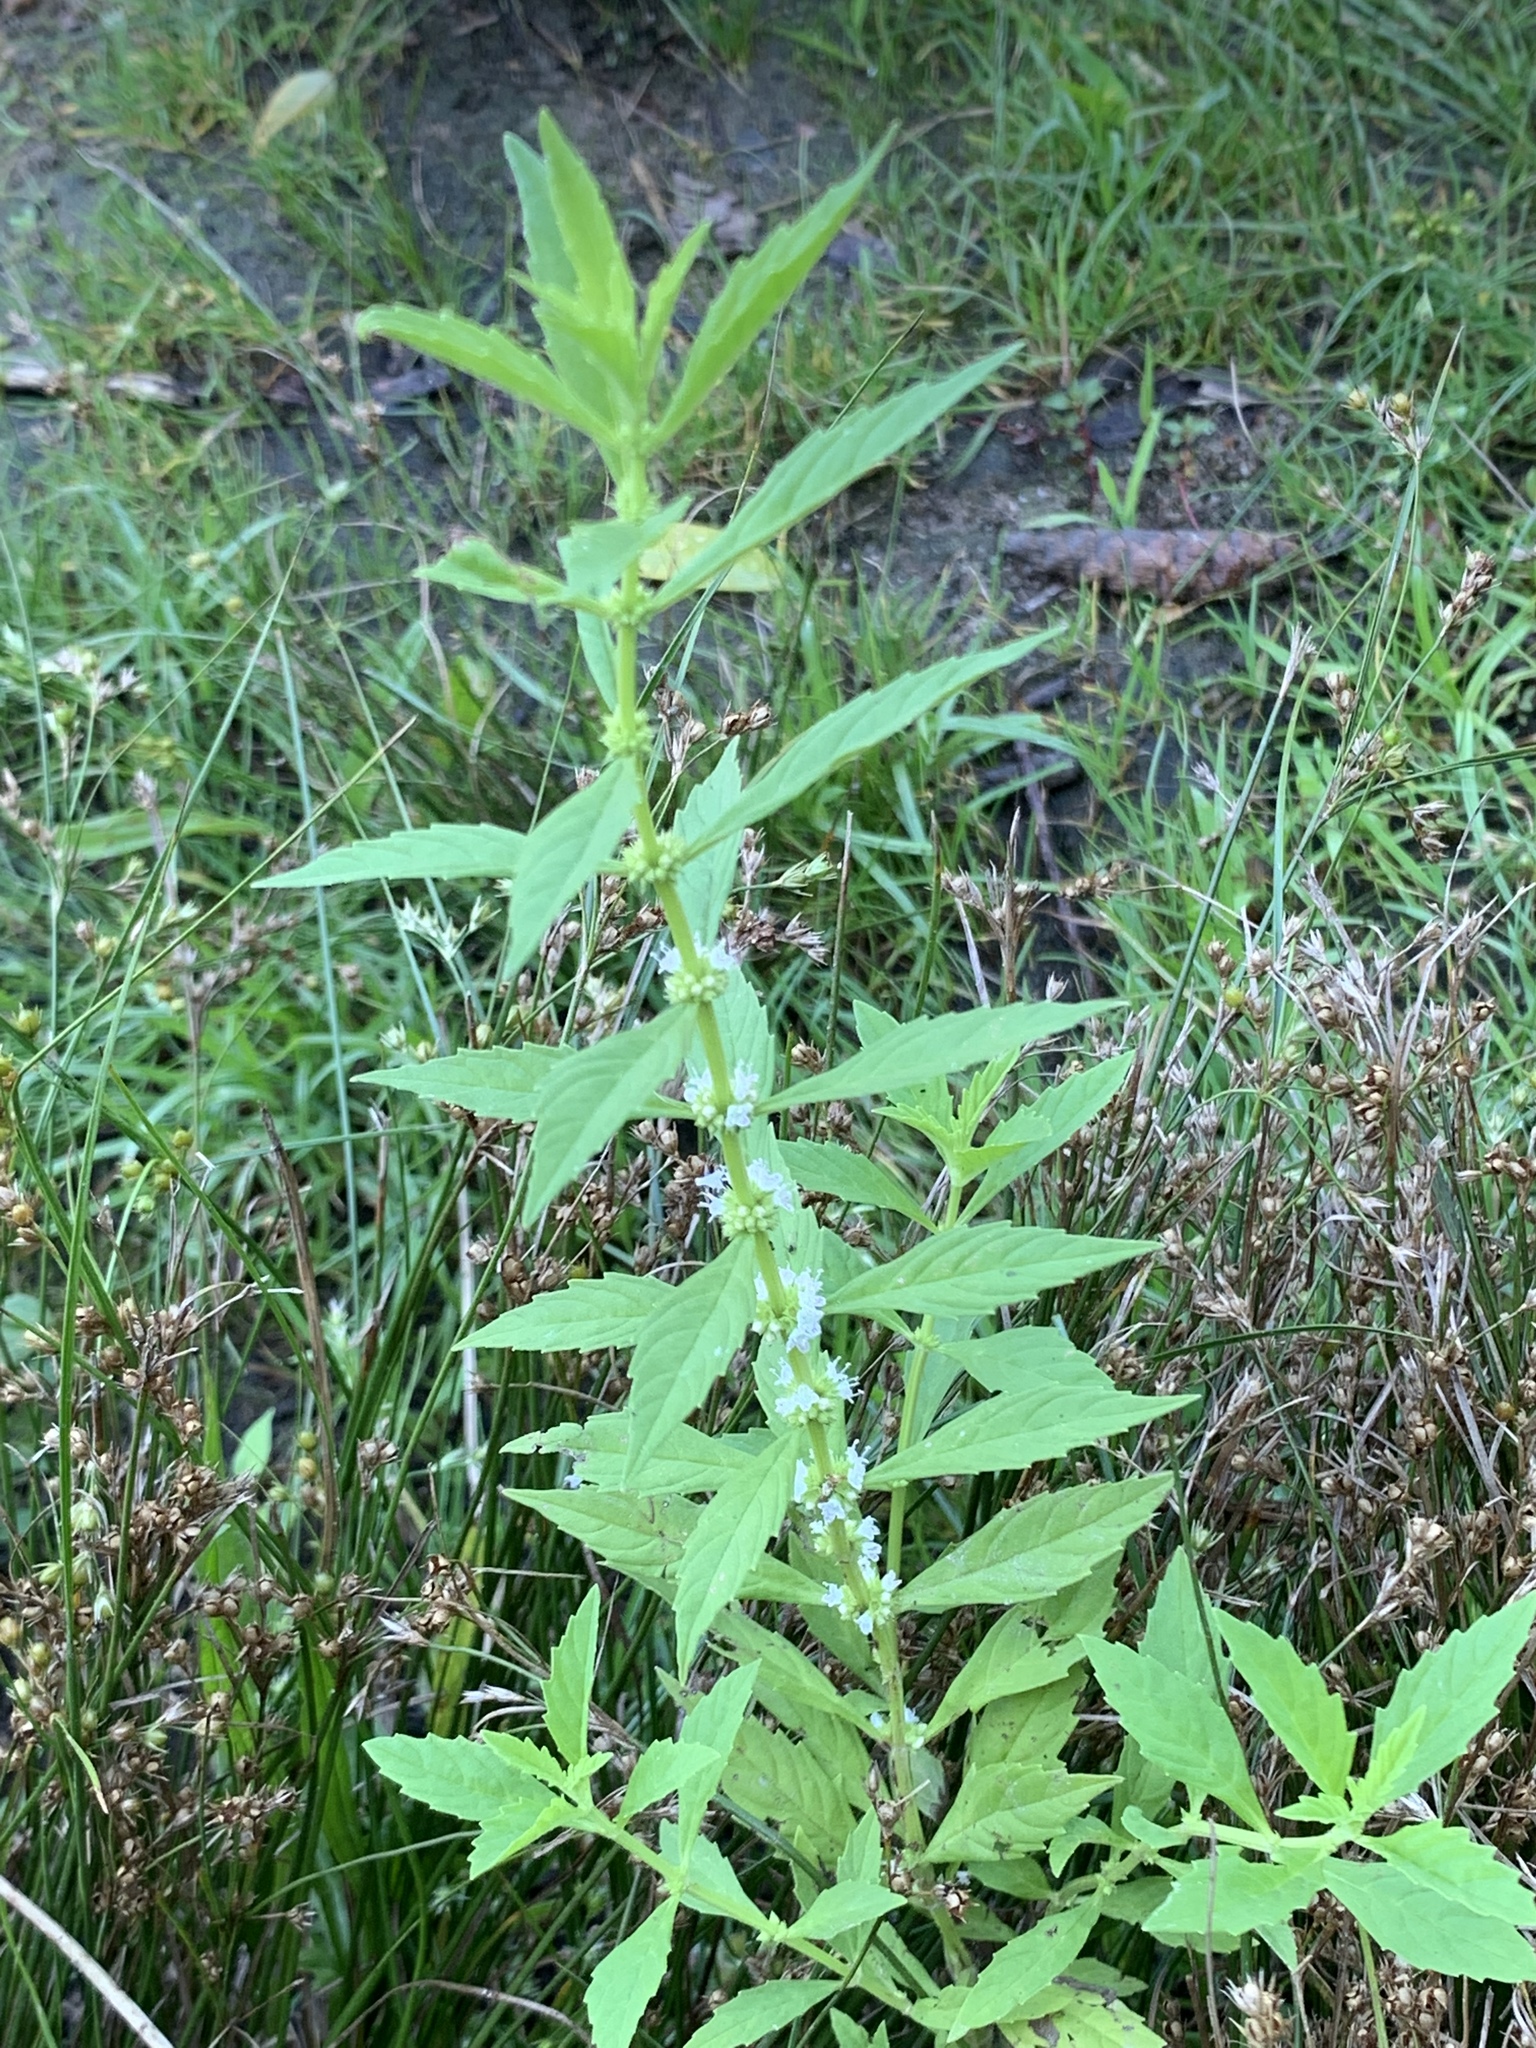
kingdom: Plantae
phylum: Tracheophyta
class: Magnoliopsida
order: Lamiales
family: Lamiaceae
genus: Lycopus
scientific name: Lycopus uniflorus
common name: Northern bugleweed
